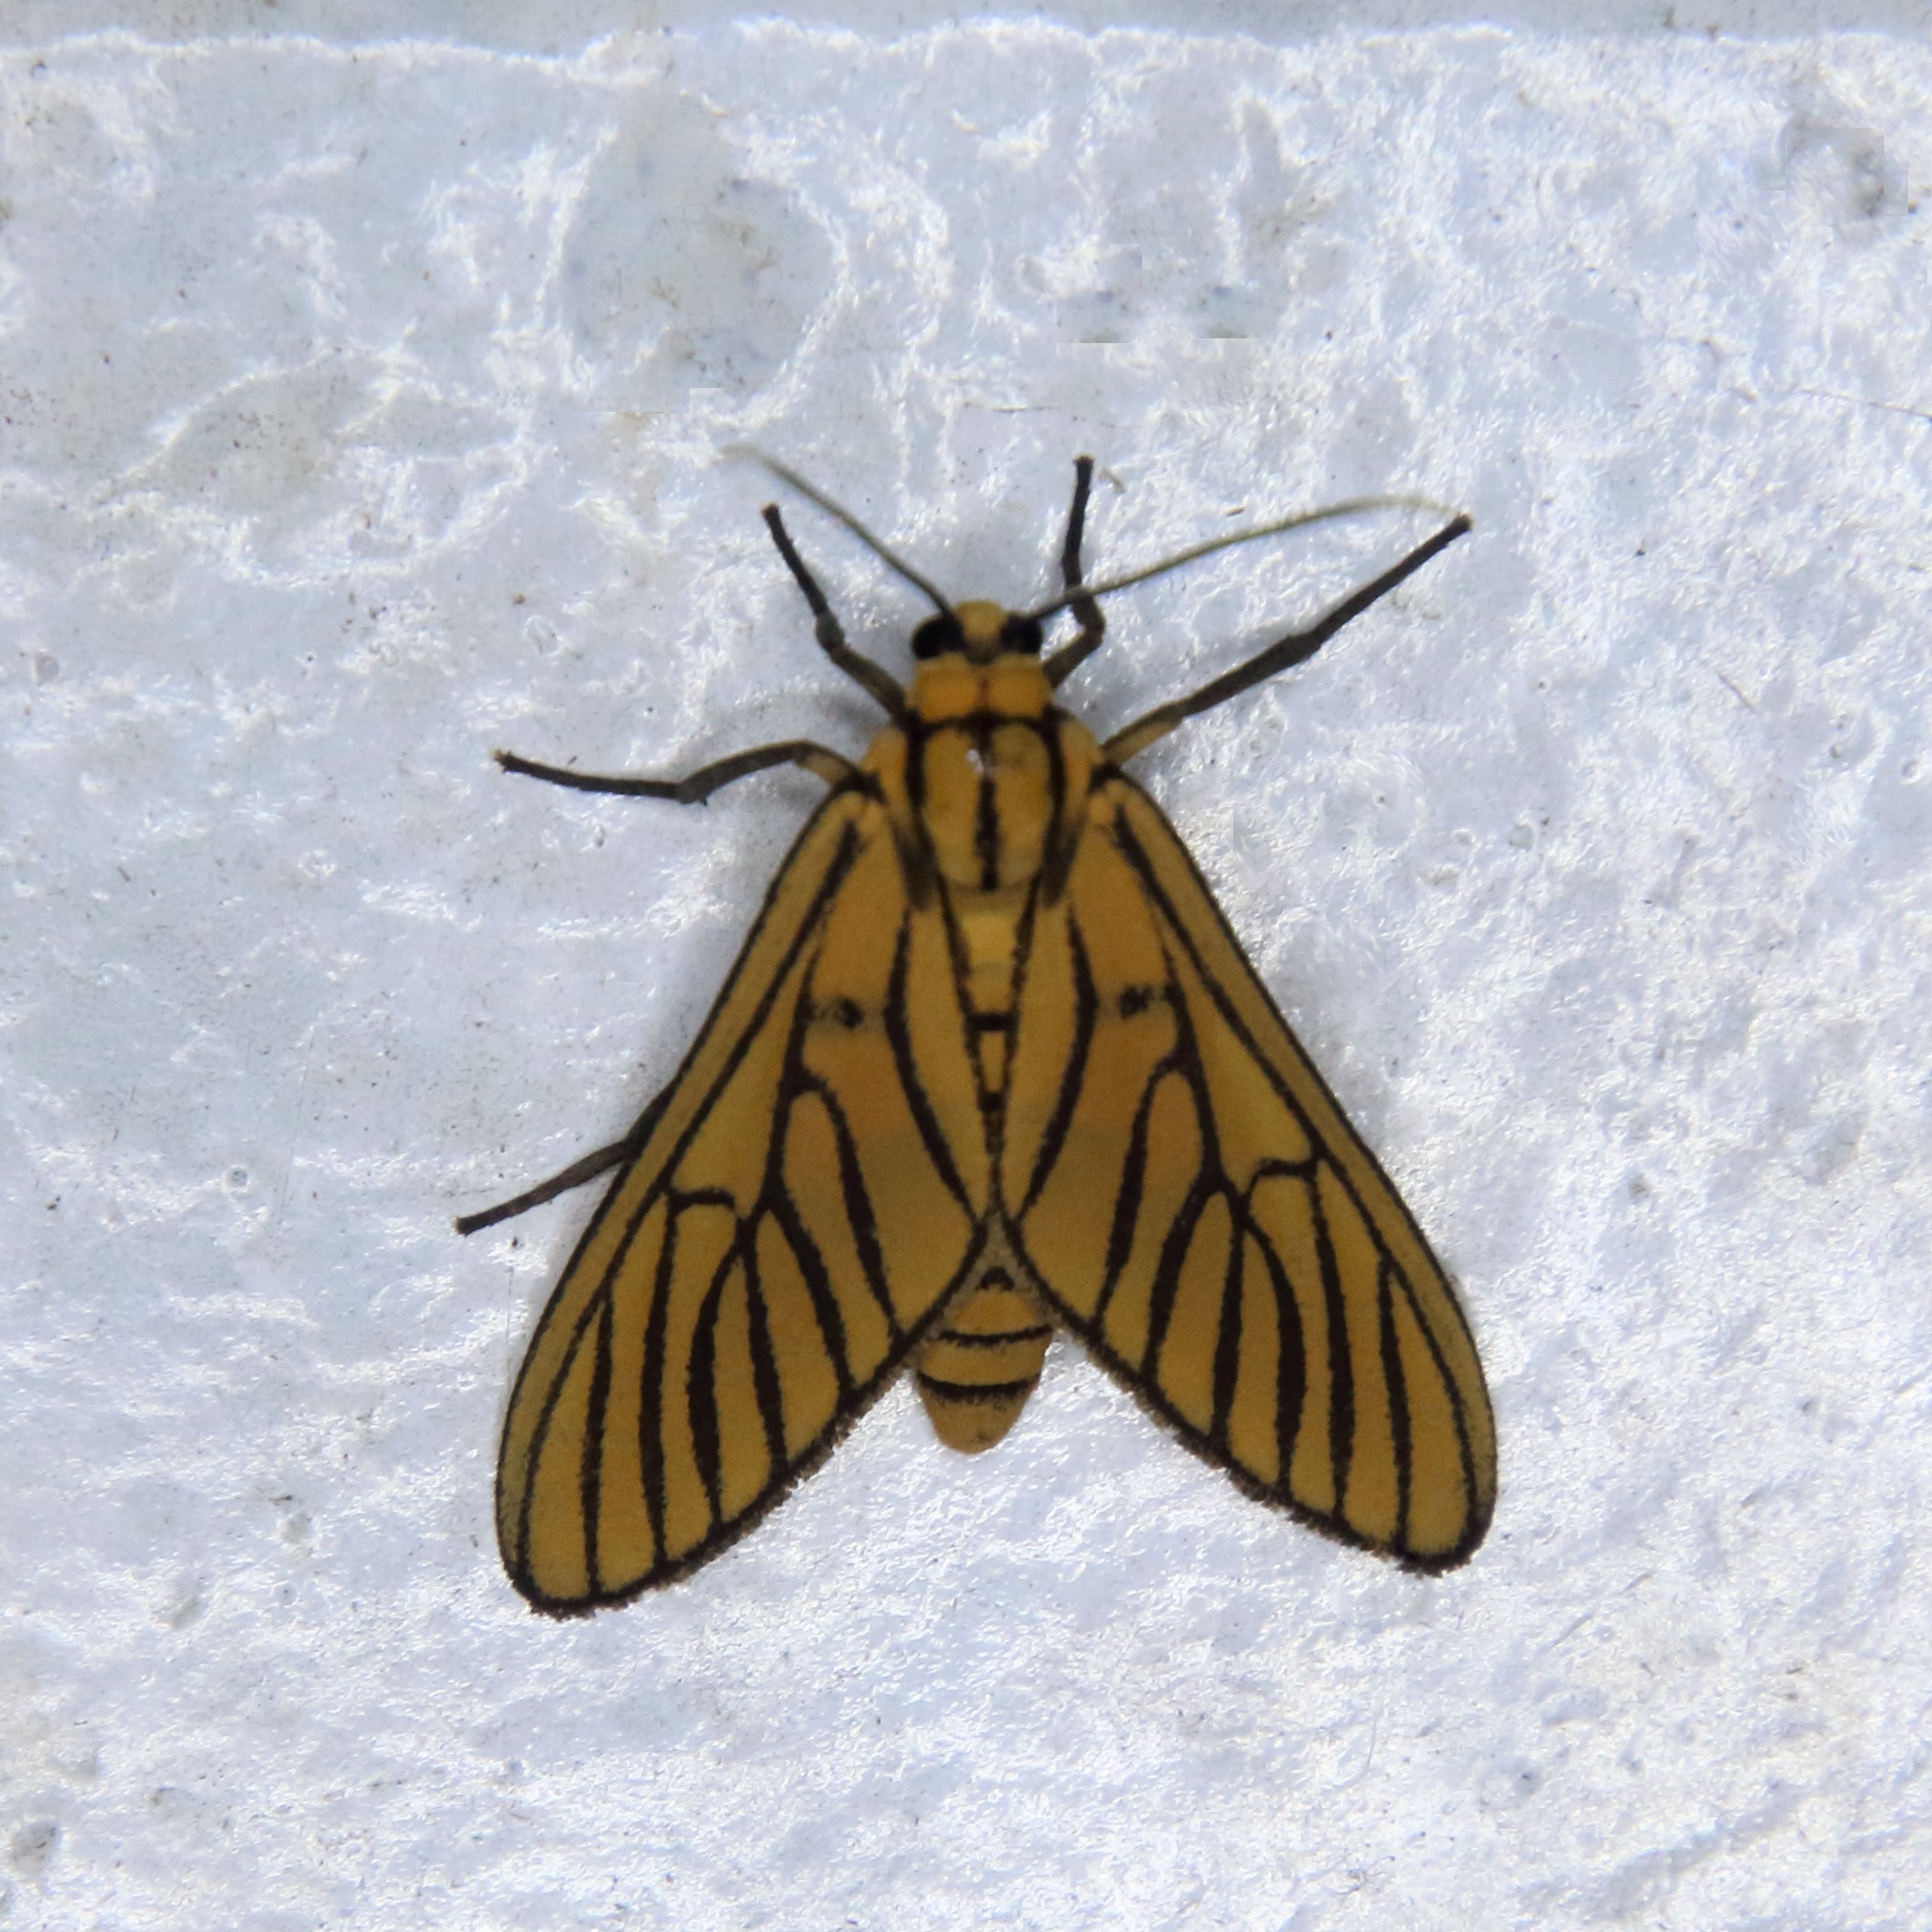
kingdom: Animalia
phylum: Arthropoda
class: Insecta
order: Lepidoptera
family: Erebidae
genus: Amata
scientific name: Amata tigrina
